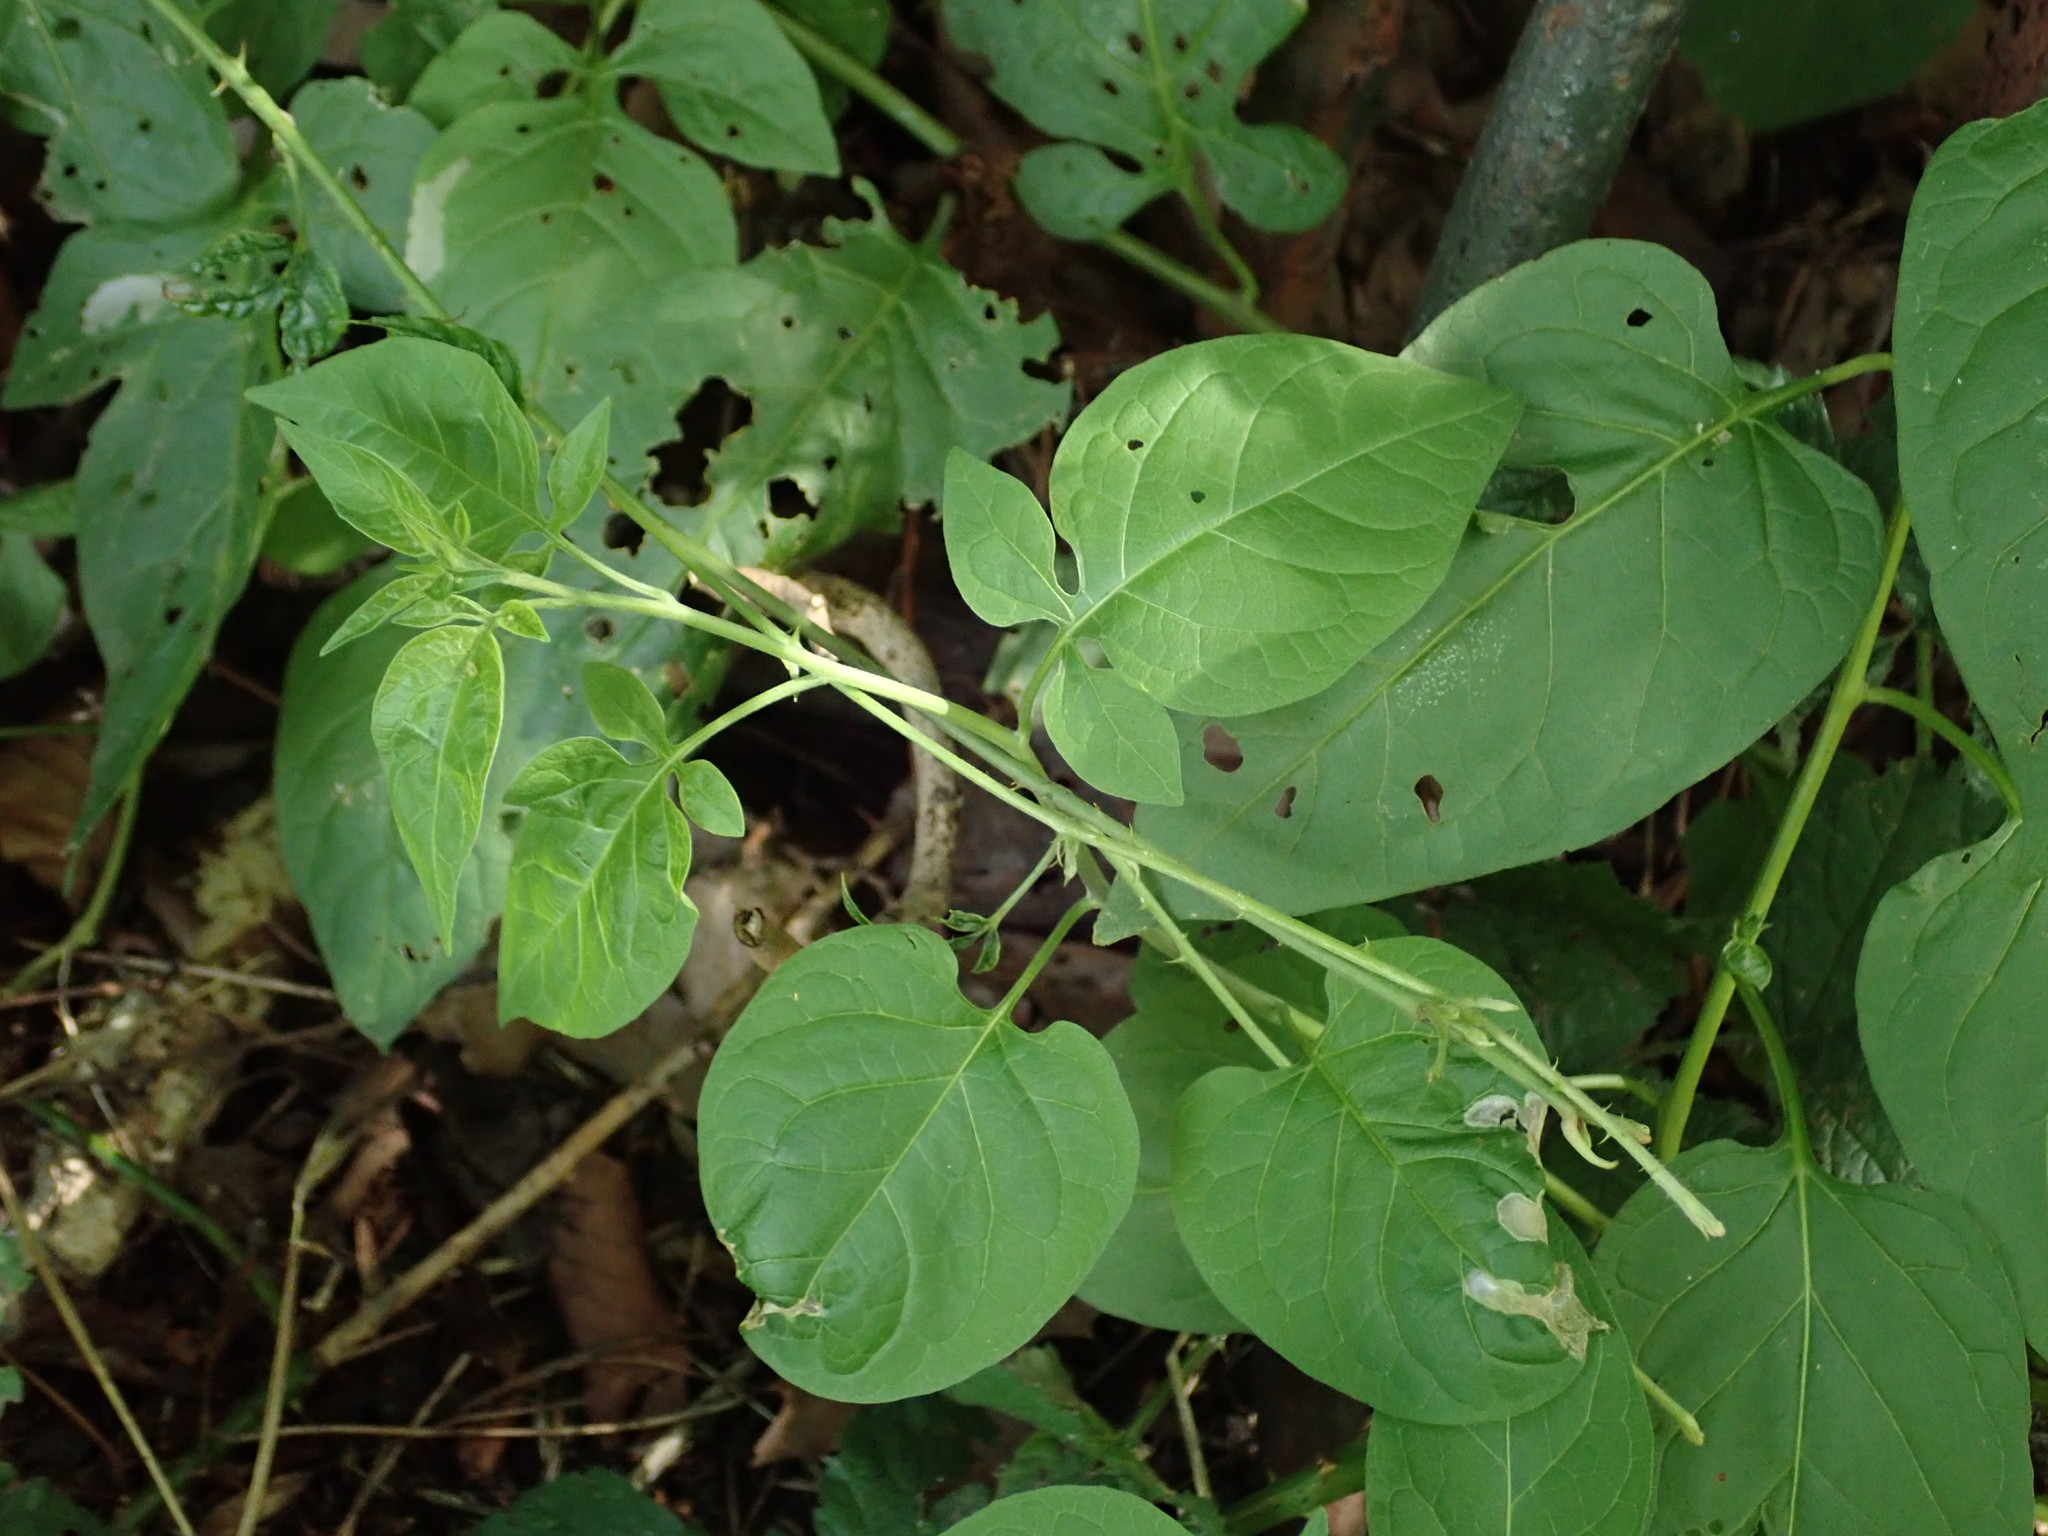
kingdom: Plantae
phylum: Tracheophyta
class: Magnoliopsida
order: Solanales
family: Solanaceae
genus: Solanum
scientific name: Solanum dulcamara
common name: Climbing nightshade
